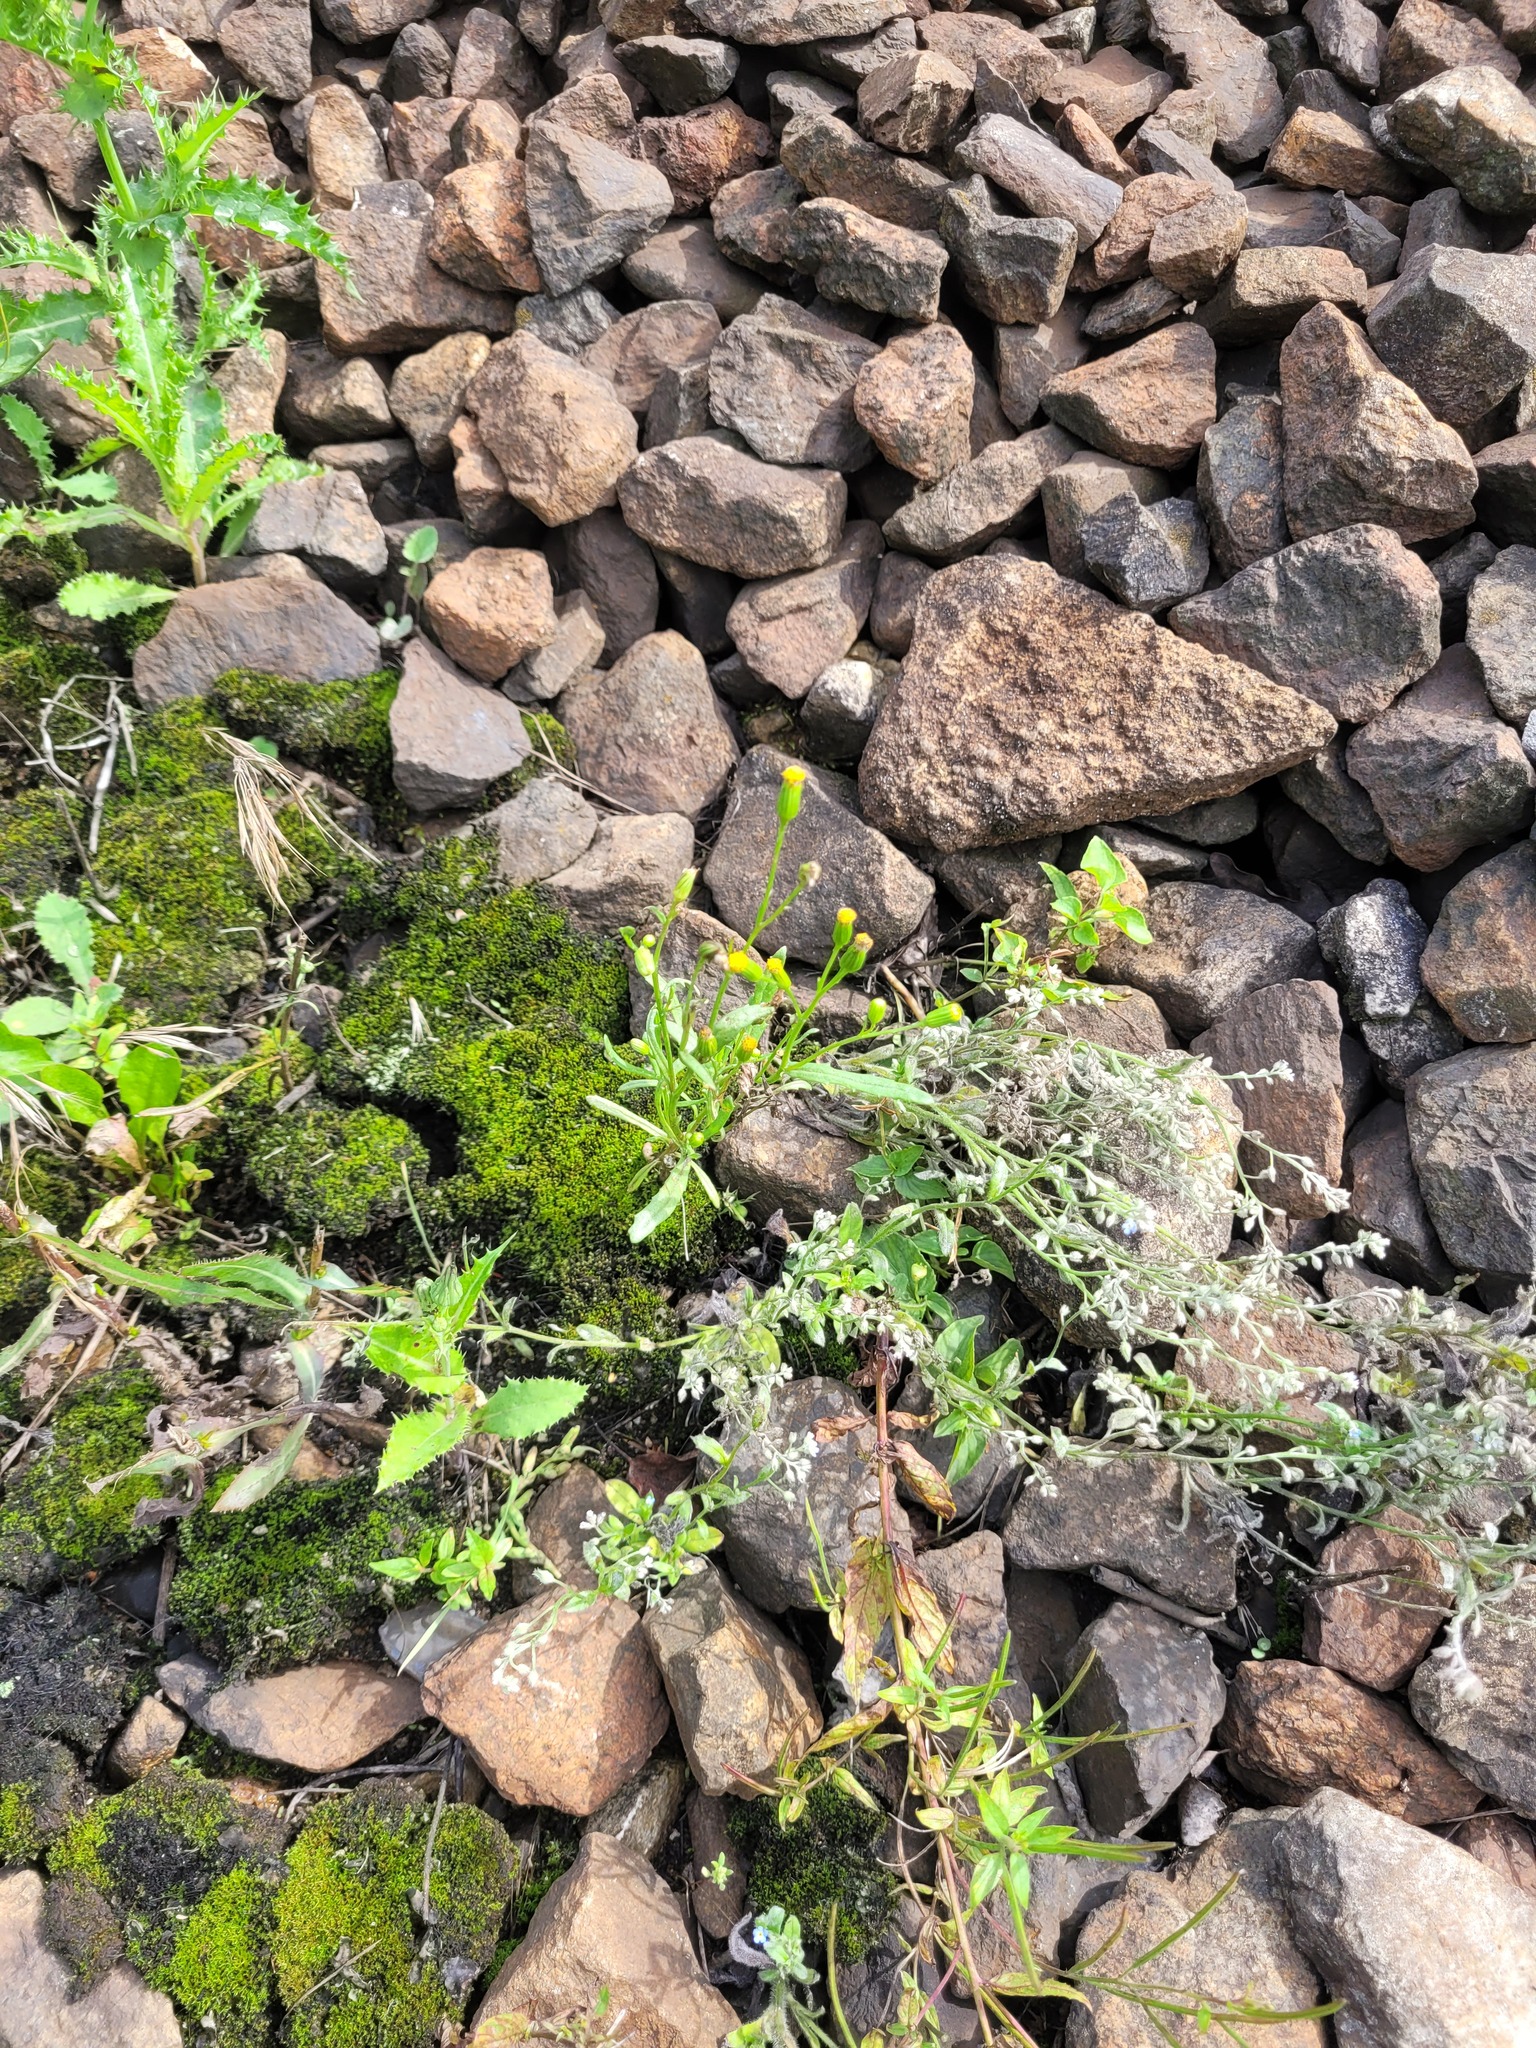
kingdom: Plantae
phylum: Tracheophyta
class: Magnoliopsida
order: Asterales
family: Asteraceae
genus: Senecio
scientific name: Senecio dubitabilis
